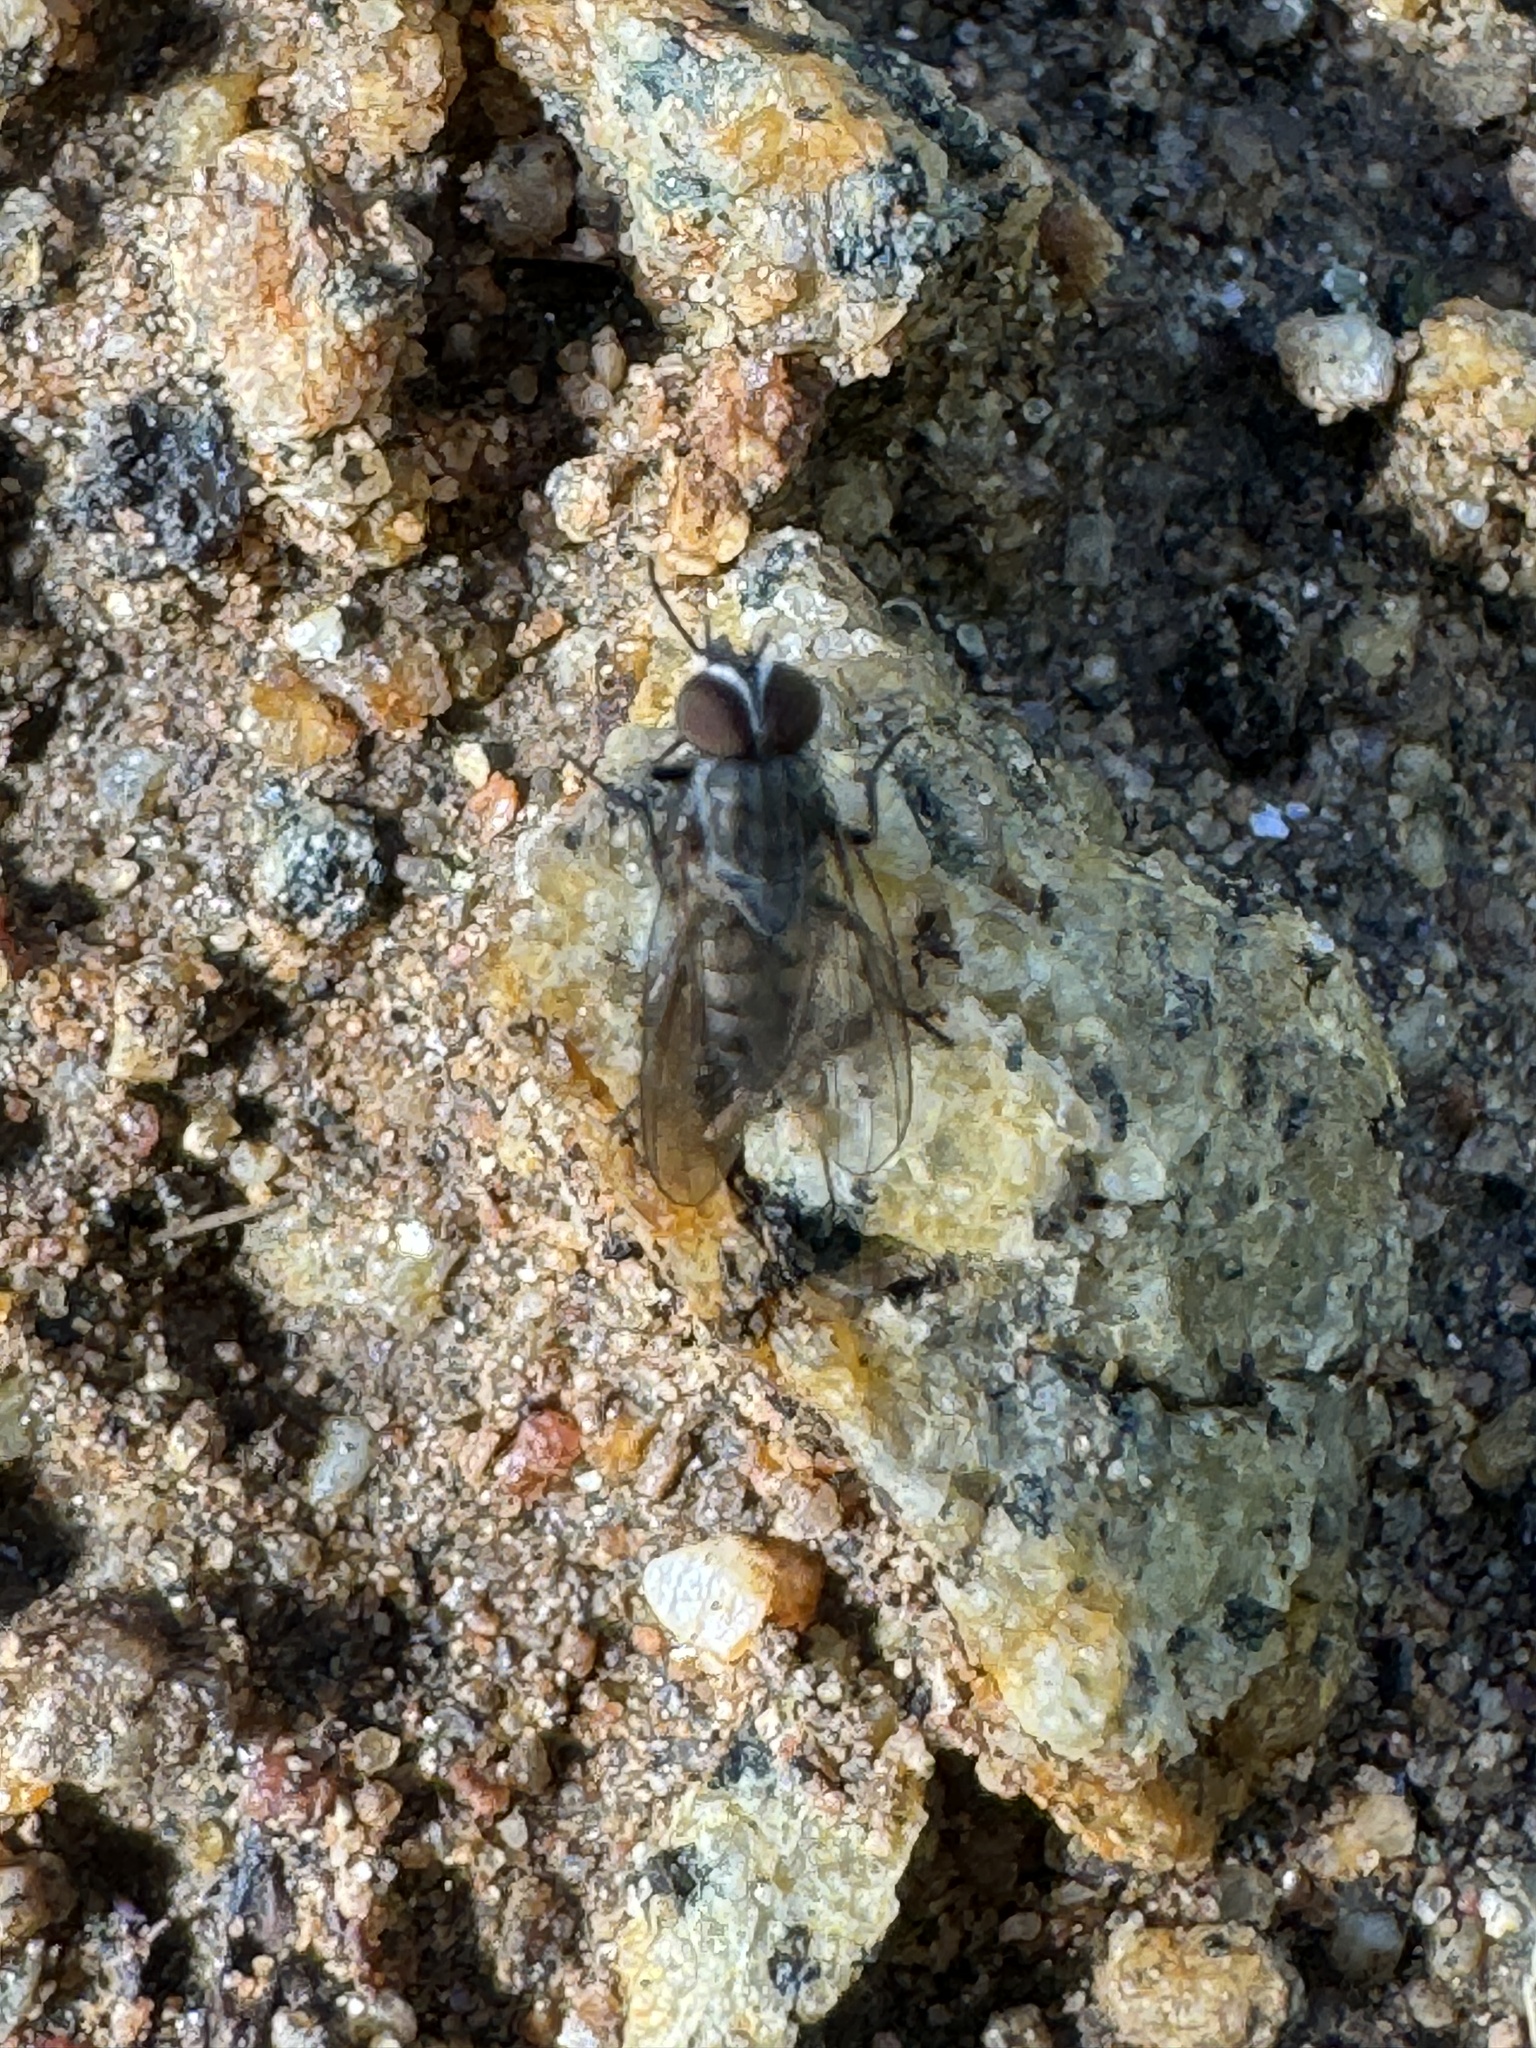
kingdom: Animalia
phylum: Arthropoda
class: Insecta
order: Diptera
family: Fanniidae
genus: Fannia
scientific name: Fannia canicularis
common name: Little house fly
